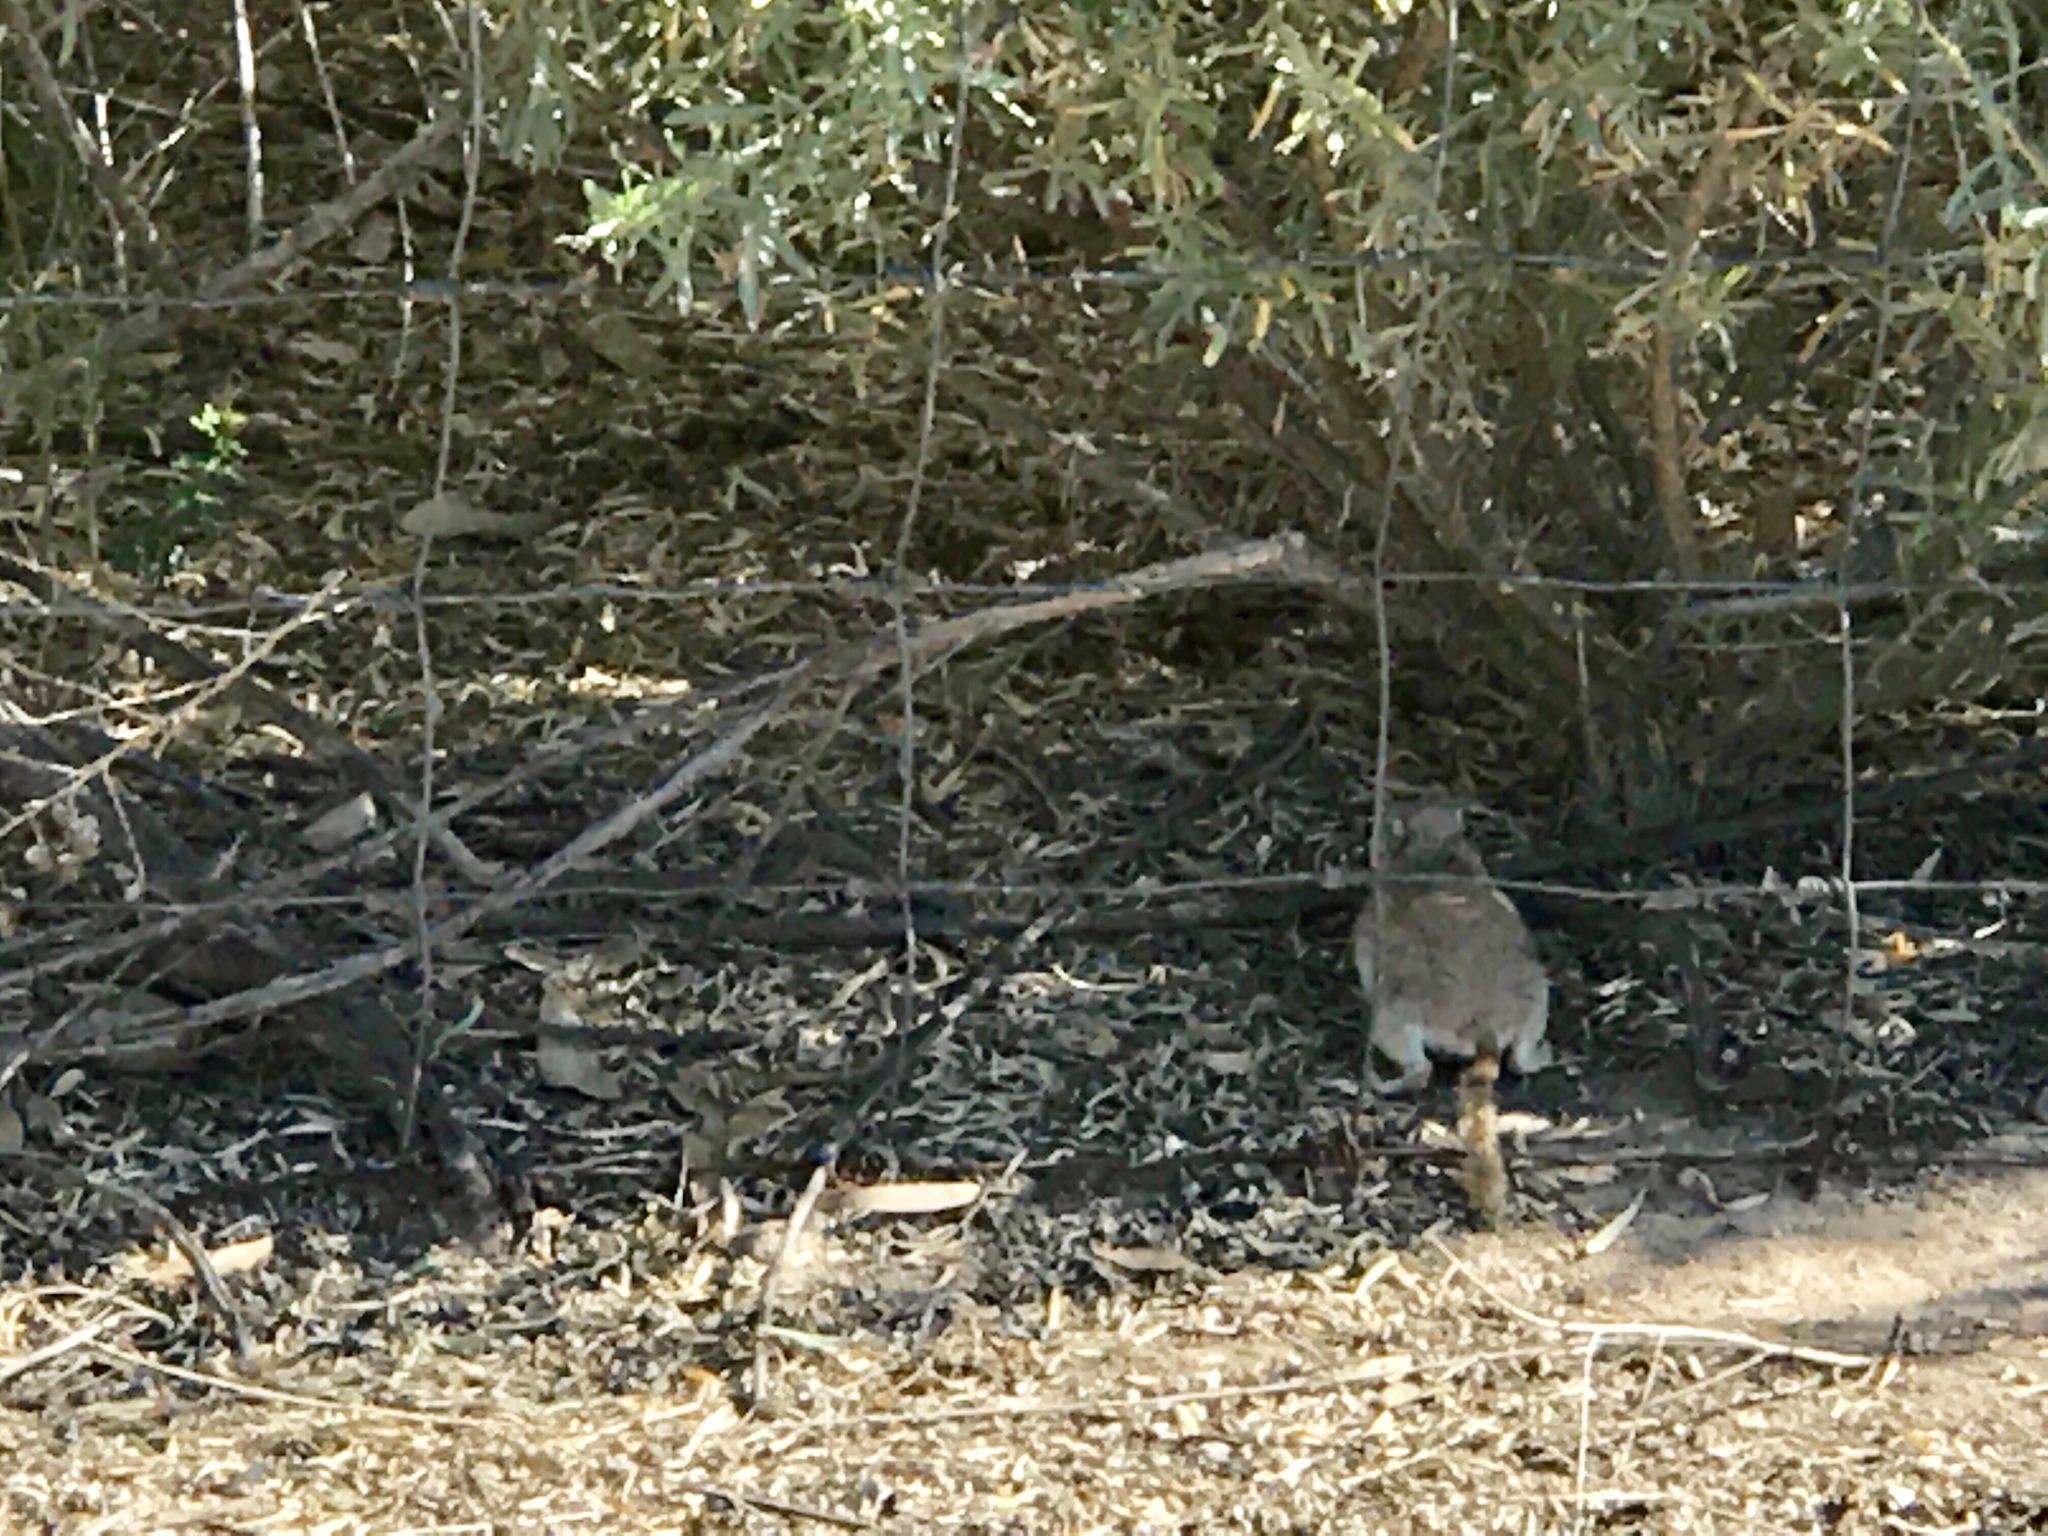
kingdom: Animalia
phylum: Chordata
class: Mammalia
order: Rodentia
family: Sciuridae
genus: Xerospermophilus
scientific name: Xerospermophilus tereticaudus
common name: Round-tailed ground squirrel
